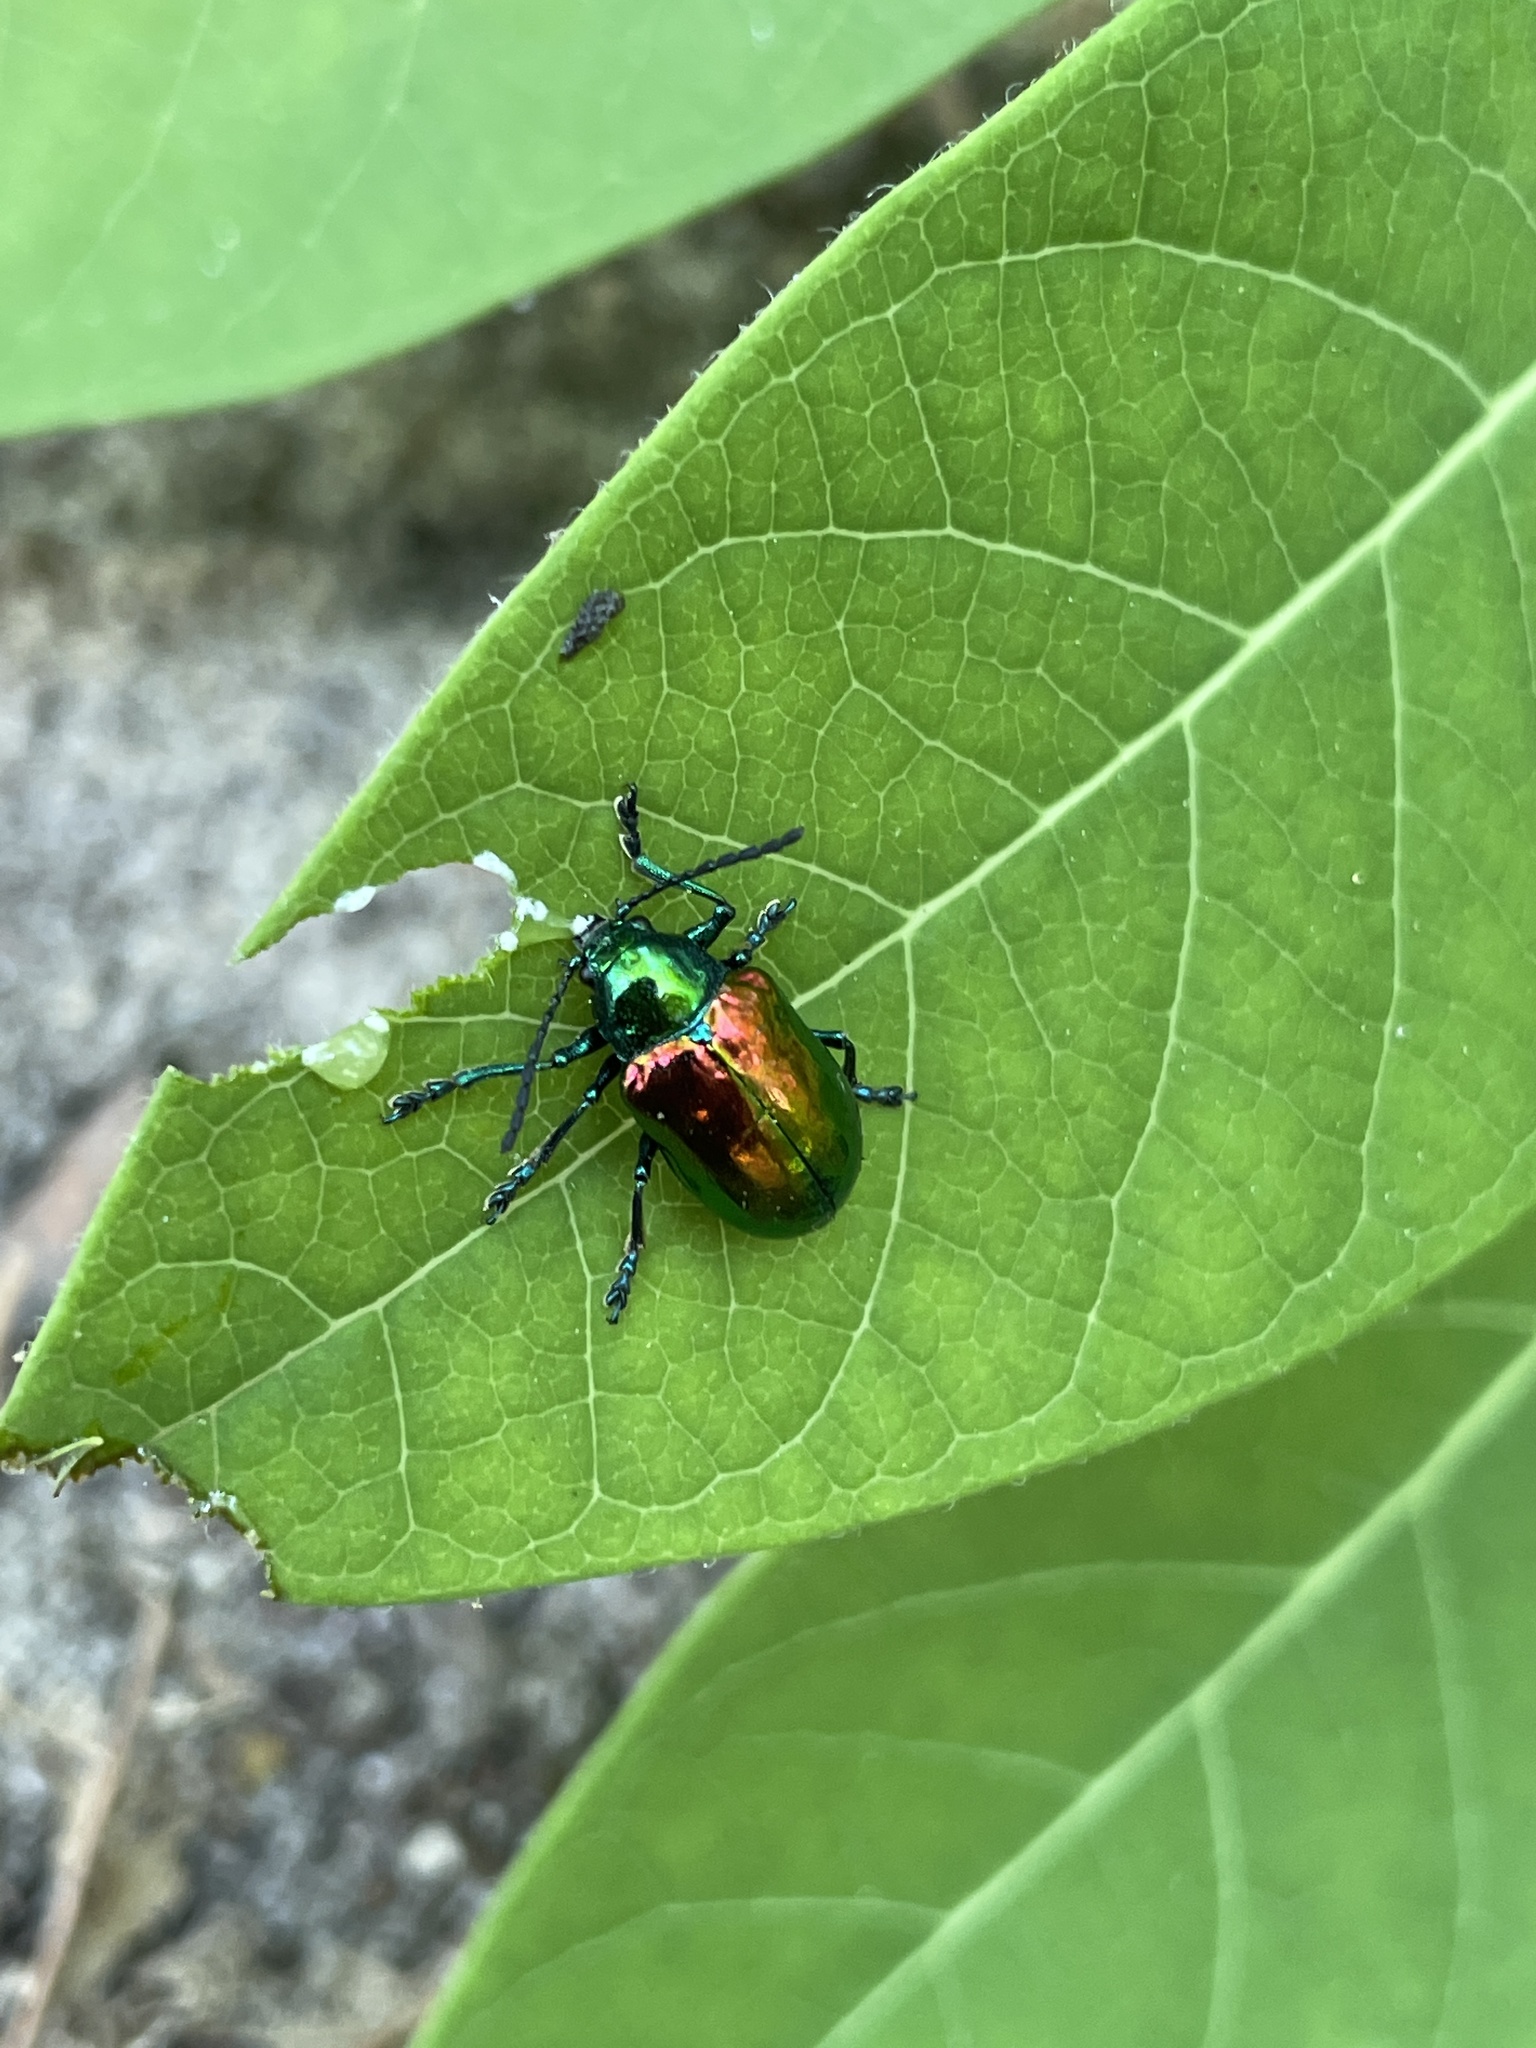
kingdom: Animalia
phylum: Arthropoda
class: Insecta
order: Coleoptera
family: Chrysomelidae
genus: Chrysochus
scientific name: Chrysochus auratus
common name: Dogbane leaf beetle
